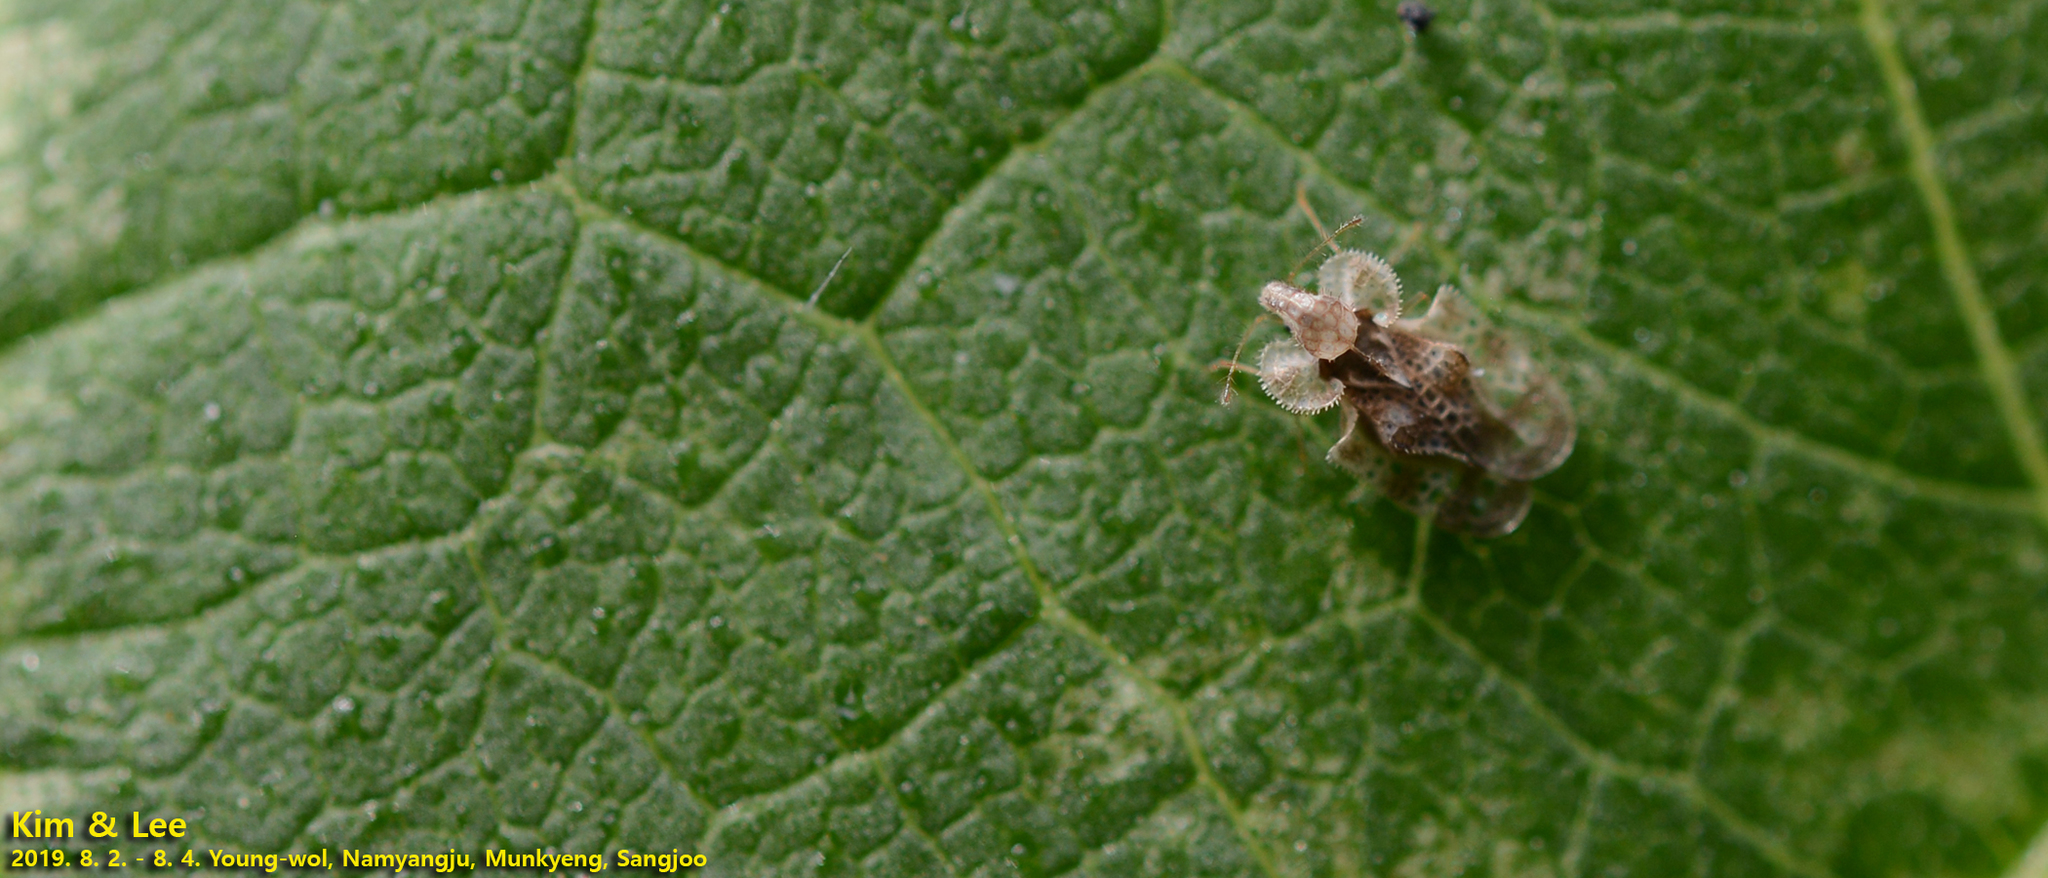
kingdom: Animalia
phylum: Arthropoda
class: Insecta
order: Hemiptera
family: Tingidae
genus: Corythucha
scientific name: Corythucha marmorata
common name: Chrysanthemum lace bug
